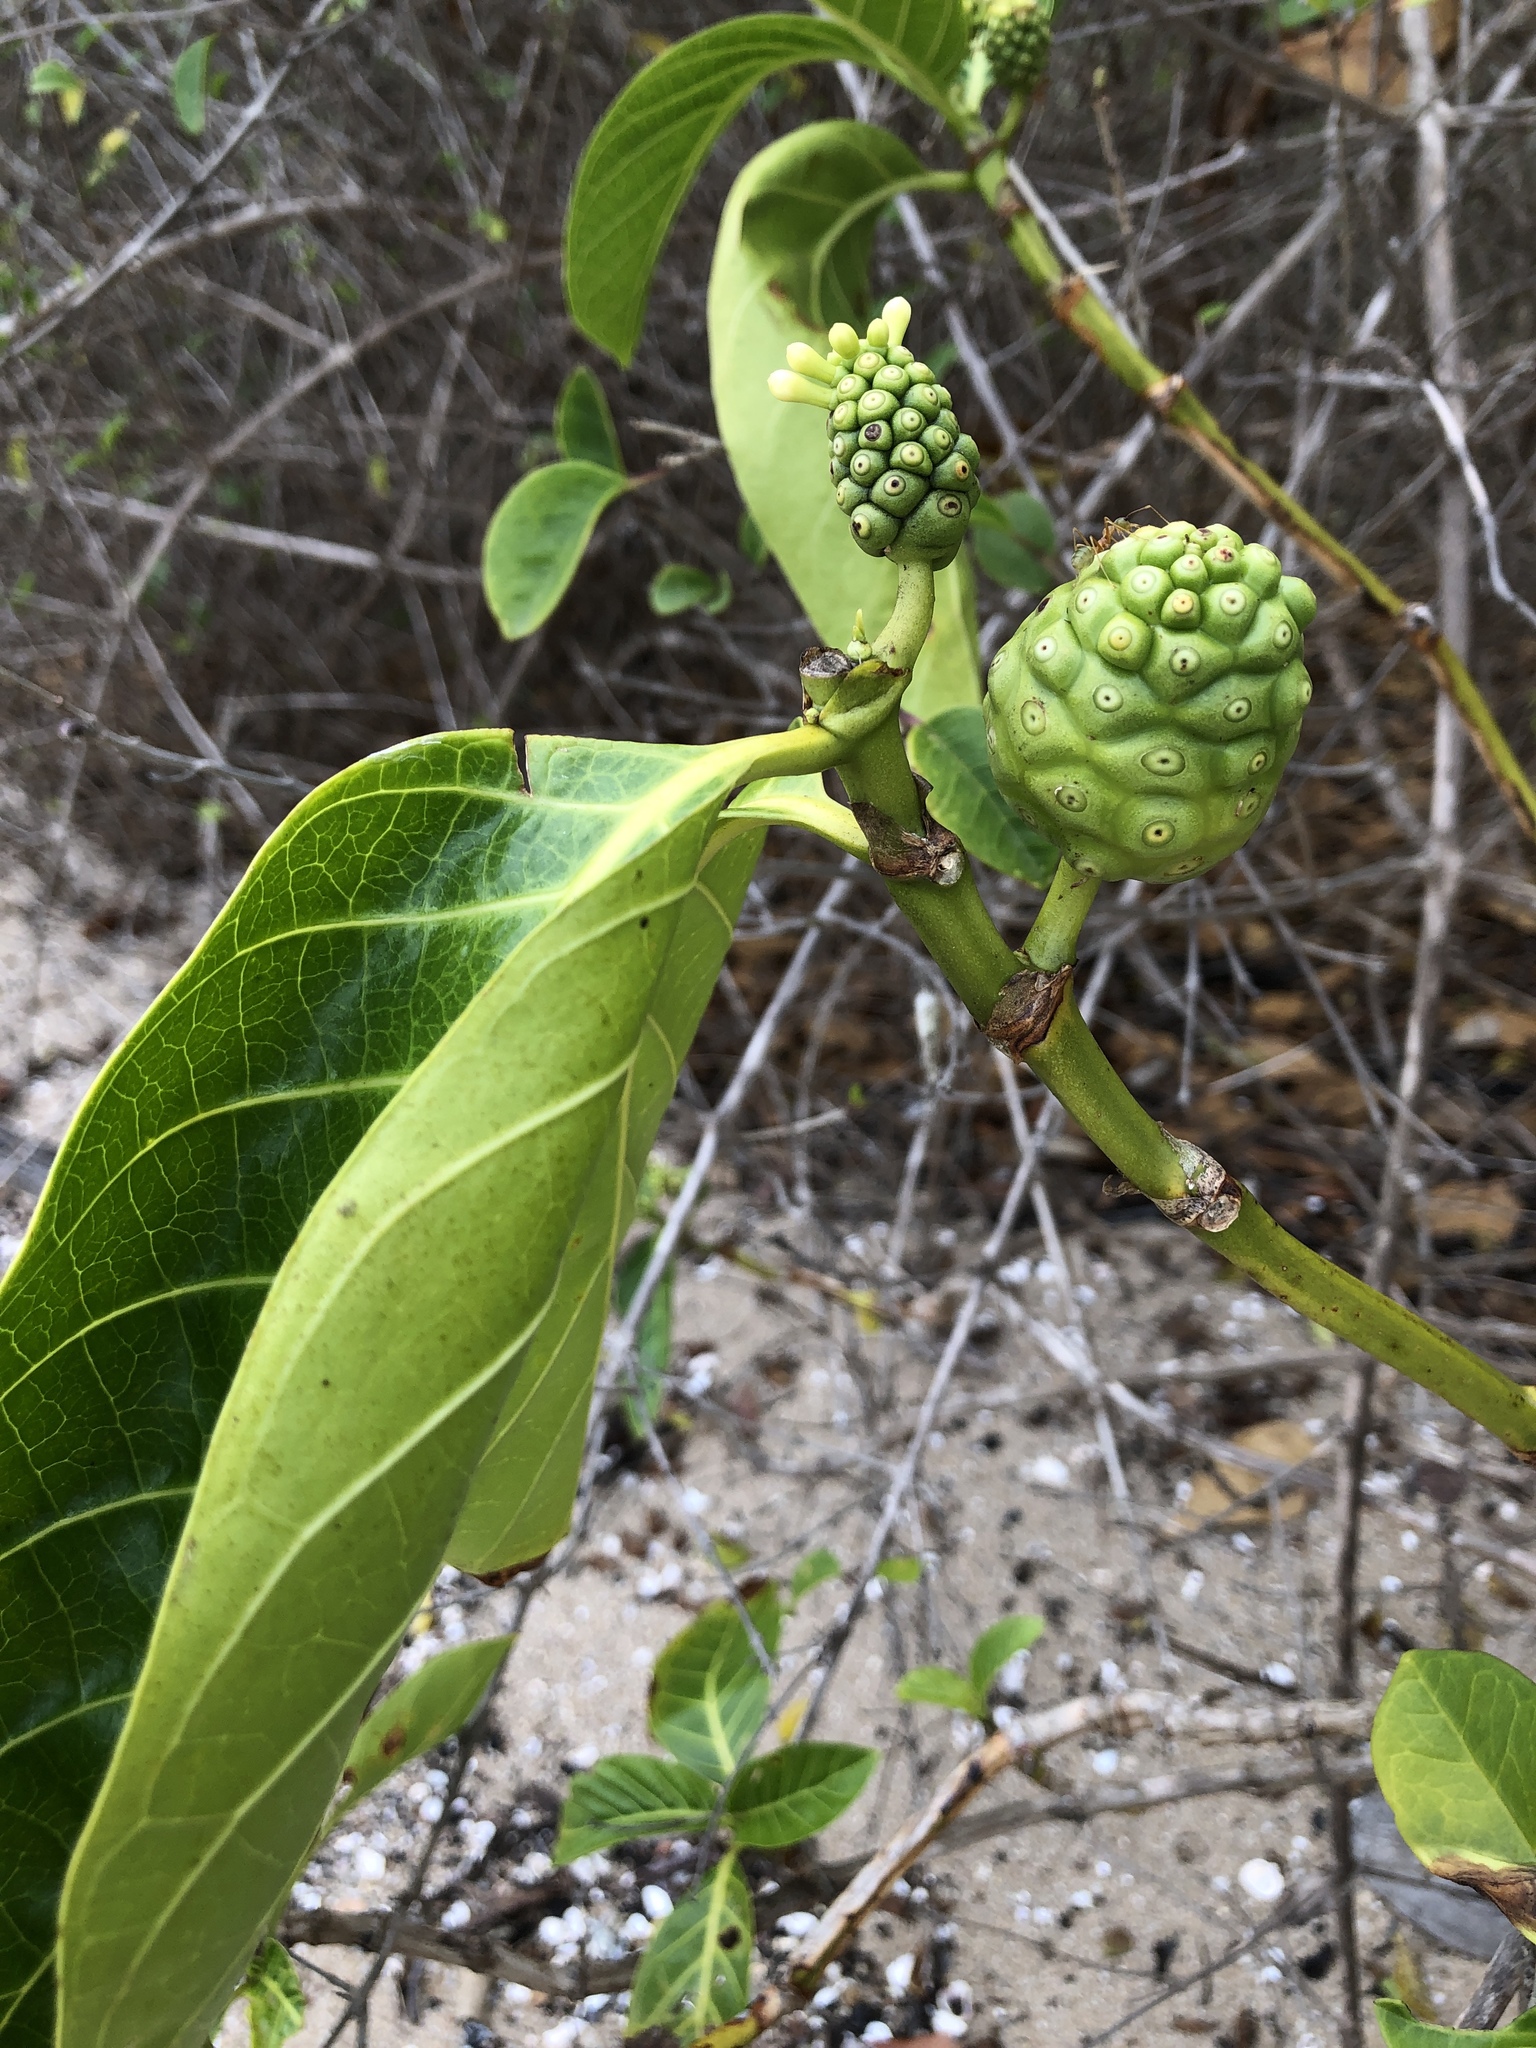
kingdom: Plantae
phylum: Tracheophyta
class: Magnoliopsida
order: Gentianales
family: Rubiaceae
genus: Morinda
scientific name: Morinda citrifolia
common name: Indian-mulberry
